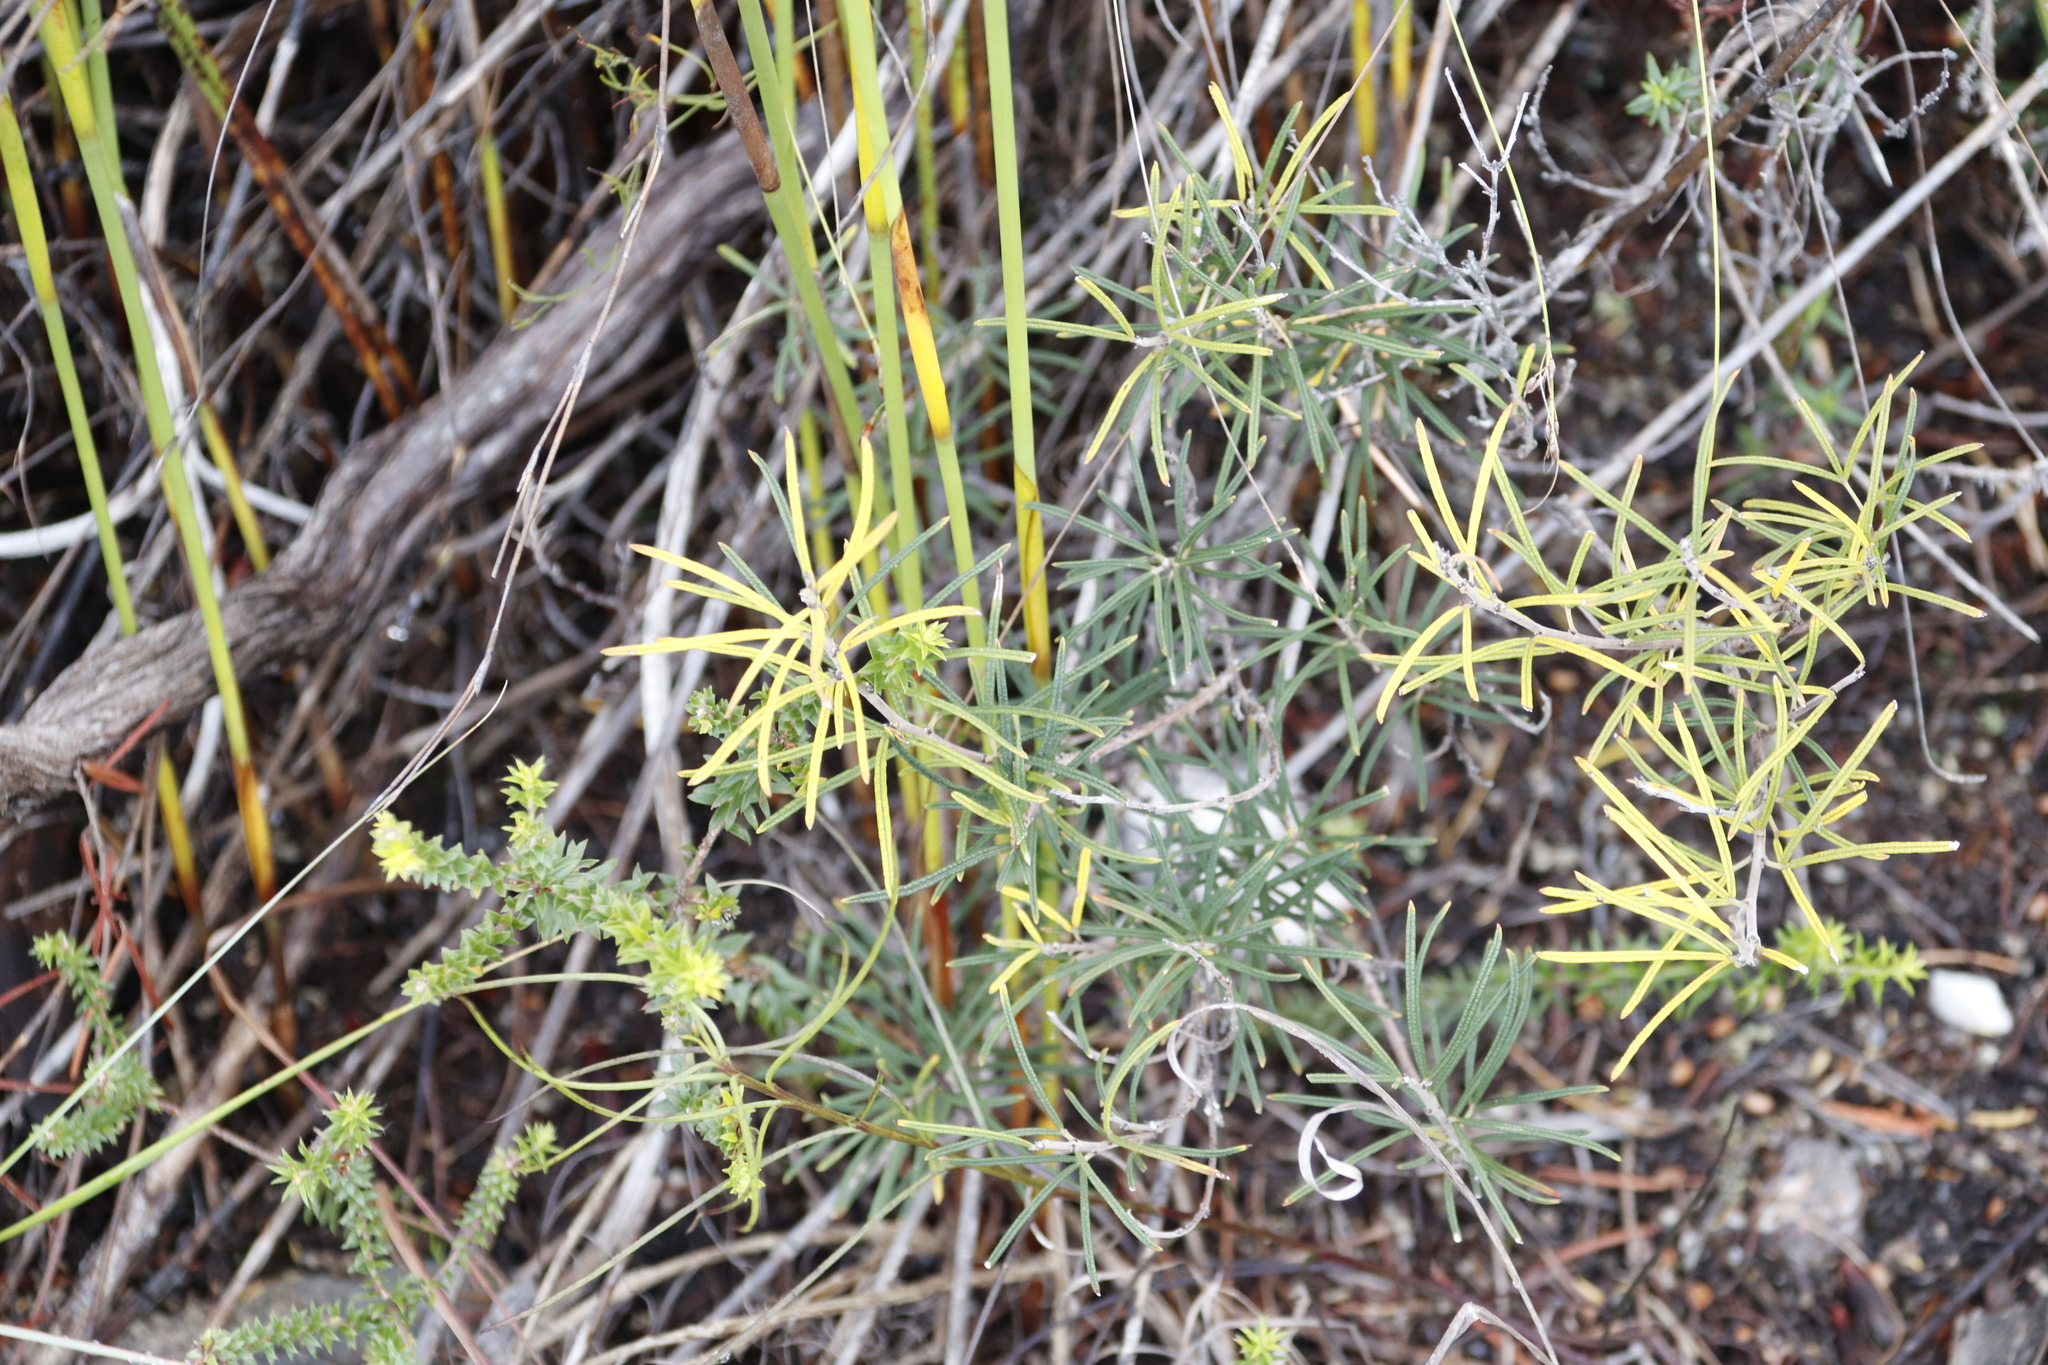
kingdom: Plantae
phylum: Tracheophyta
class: Magnoliopsida
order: Sapindales
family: Anacardiaceae
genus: Searsia
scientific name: Searsia rosmarinifolia
